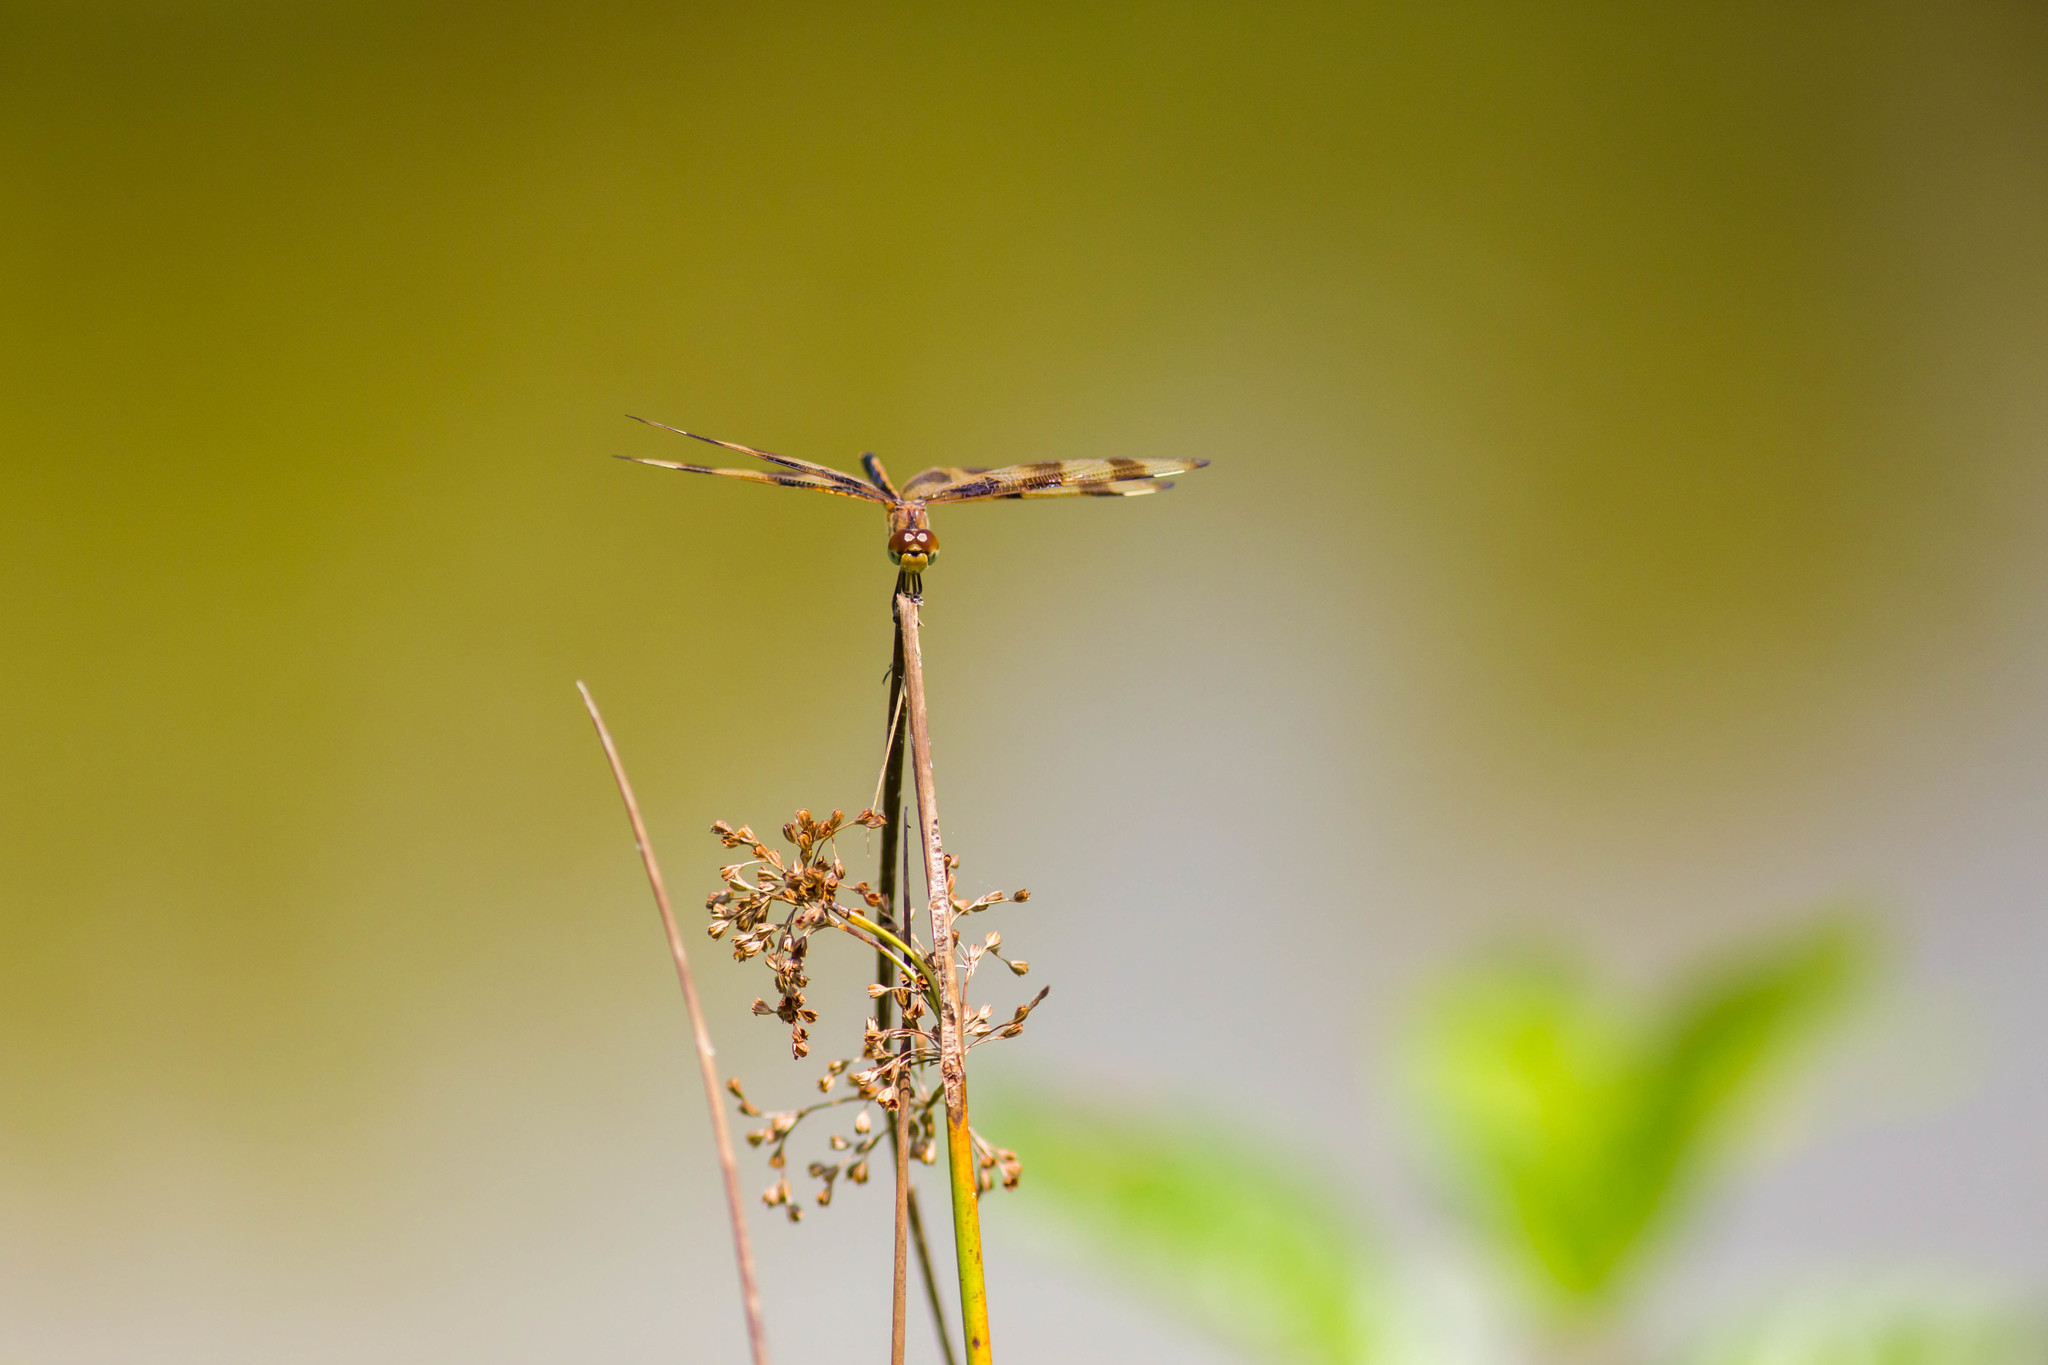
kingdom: Animalia
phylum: Arthropoda
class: Insecta
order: Odonata
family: Libellulidae
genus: Celithemis
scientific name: Celithemis eponina
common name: Halloween pennant
